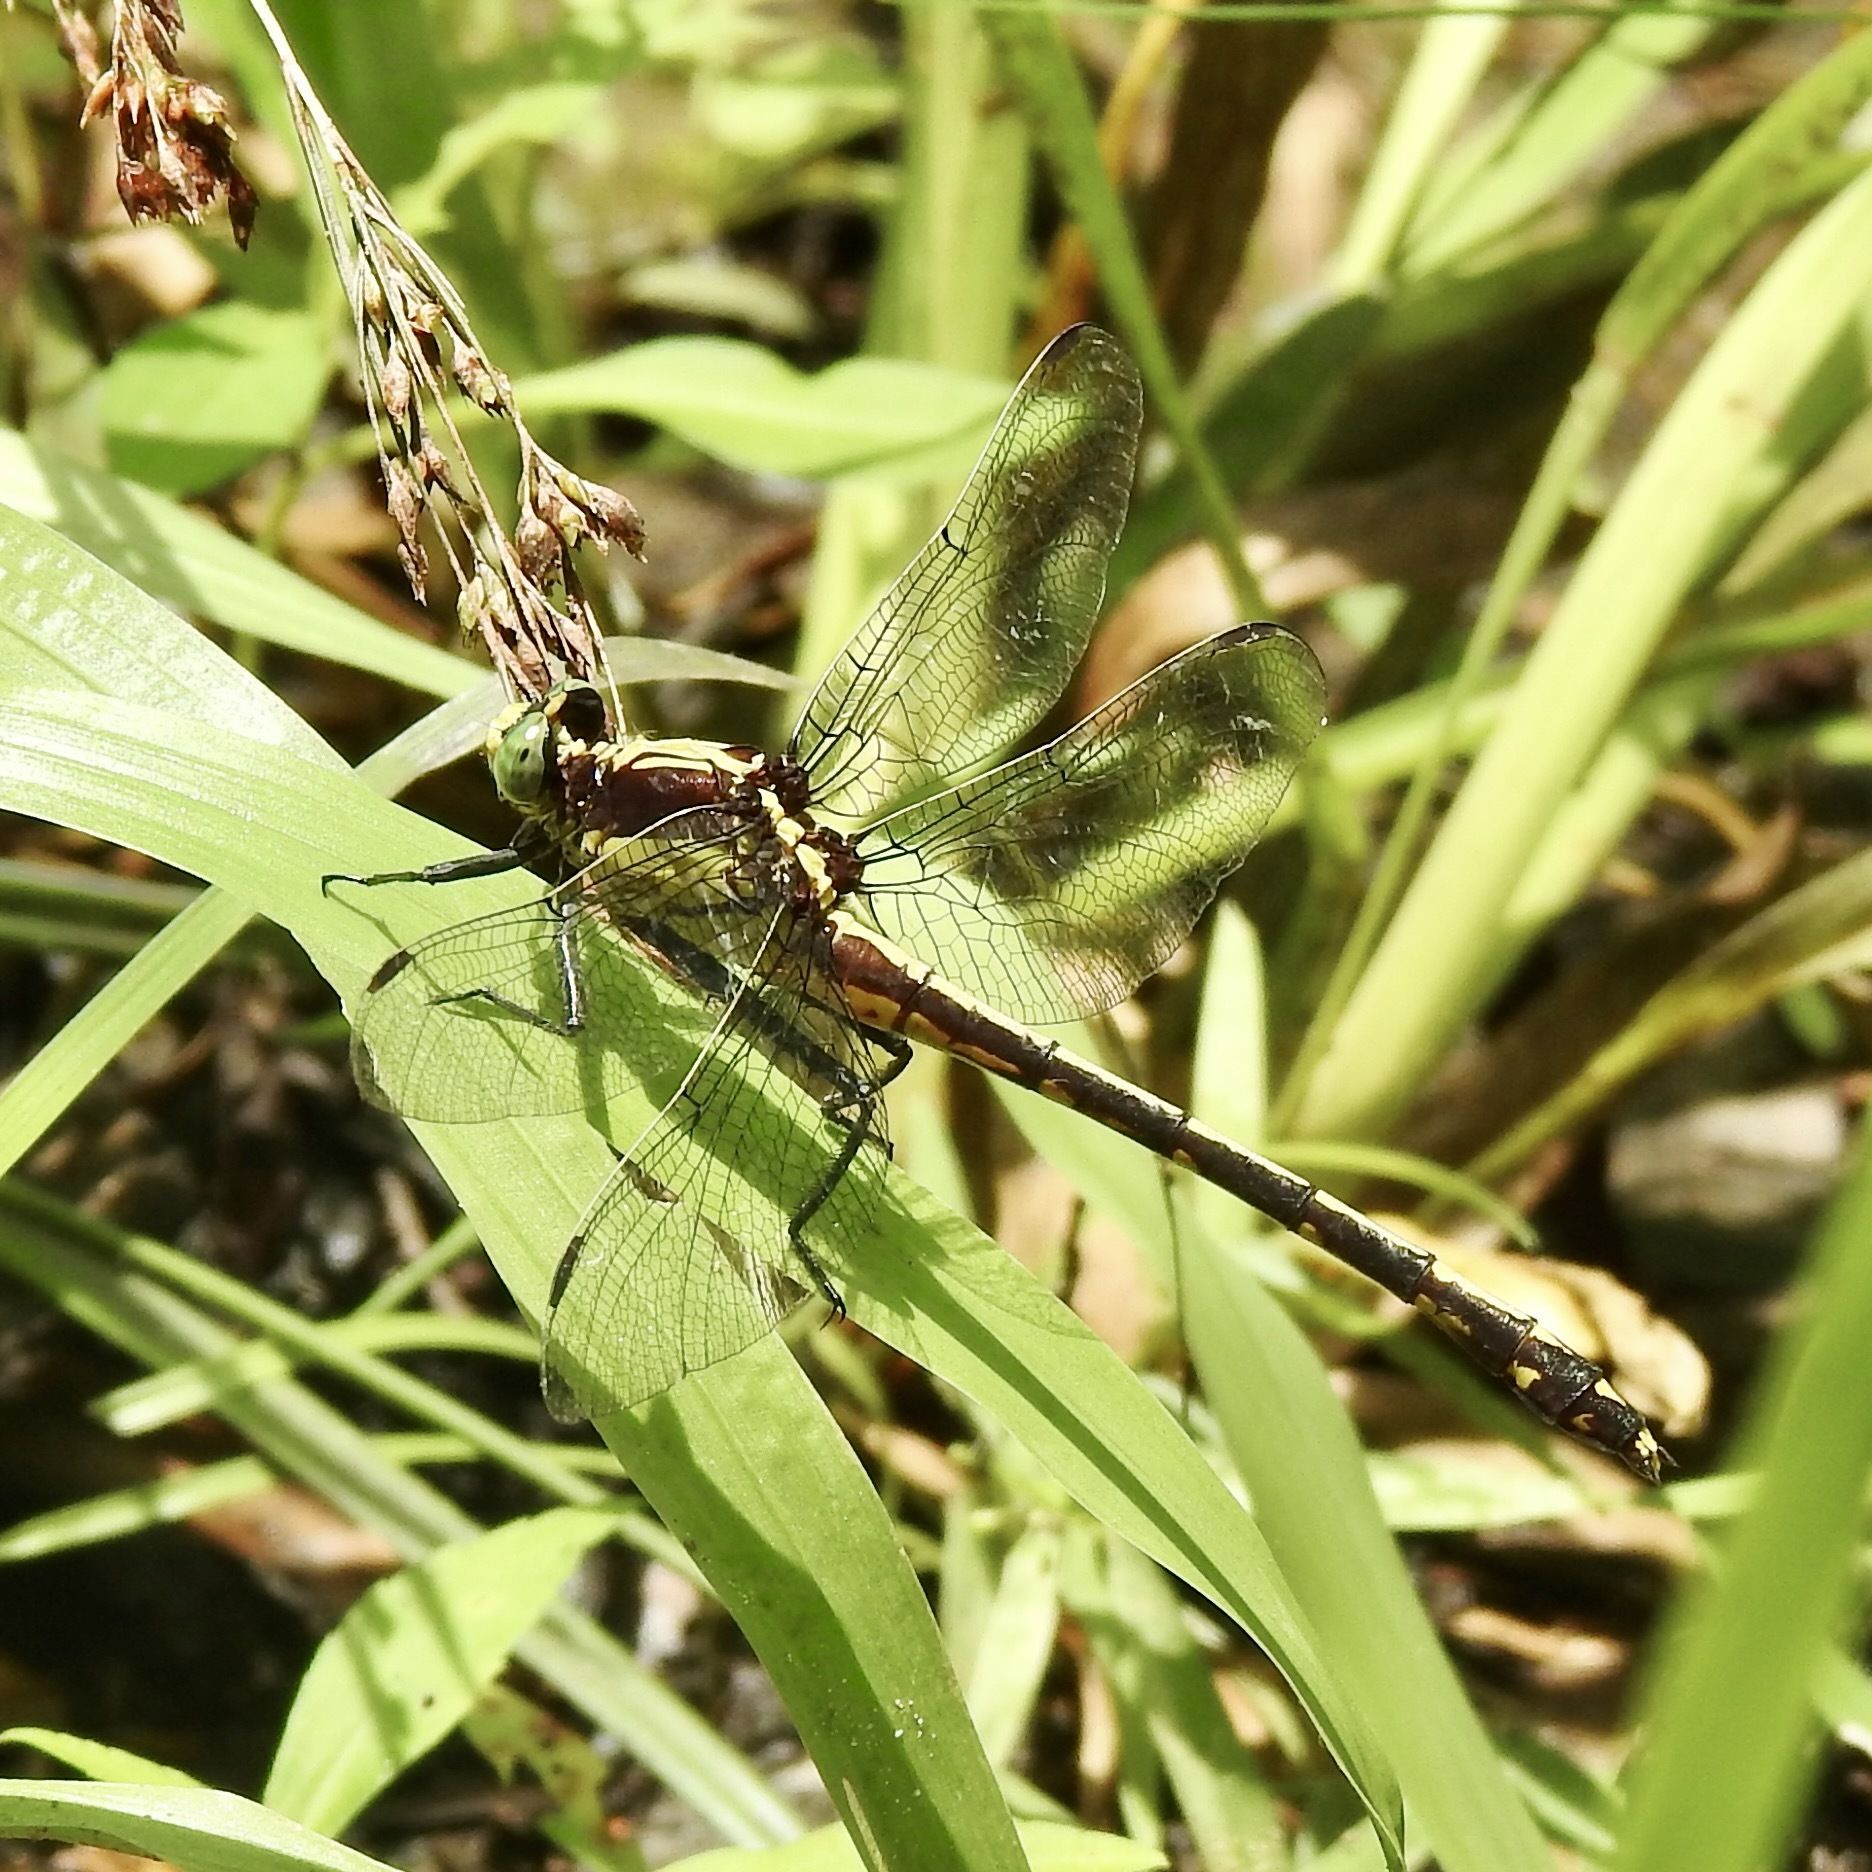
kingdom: Animalia
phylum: Arthropoda
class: Insecta
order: Odonata
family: Gomphidae
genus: Dromogomphus
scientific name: Dromogomphus spinosus
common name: Black-shouldered spinyleg
